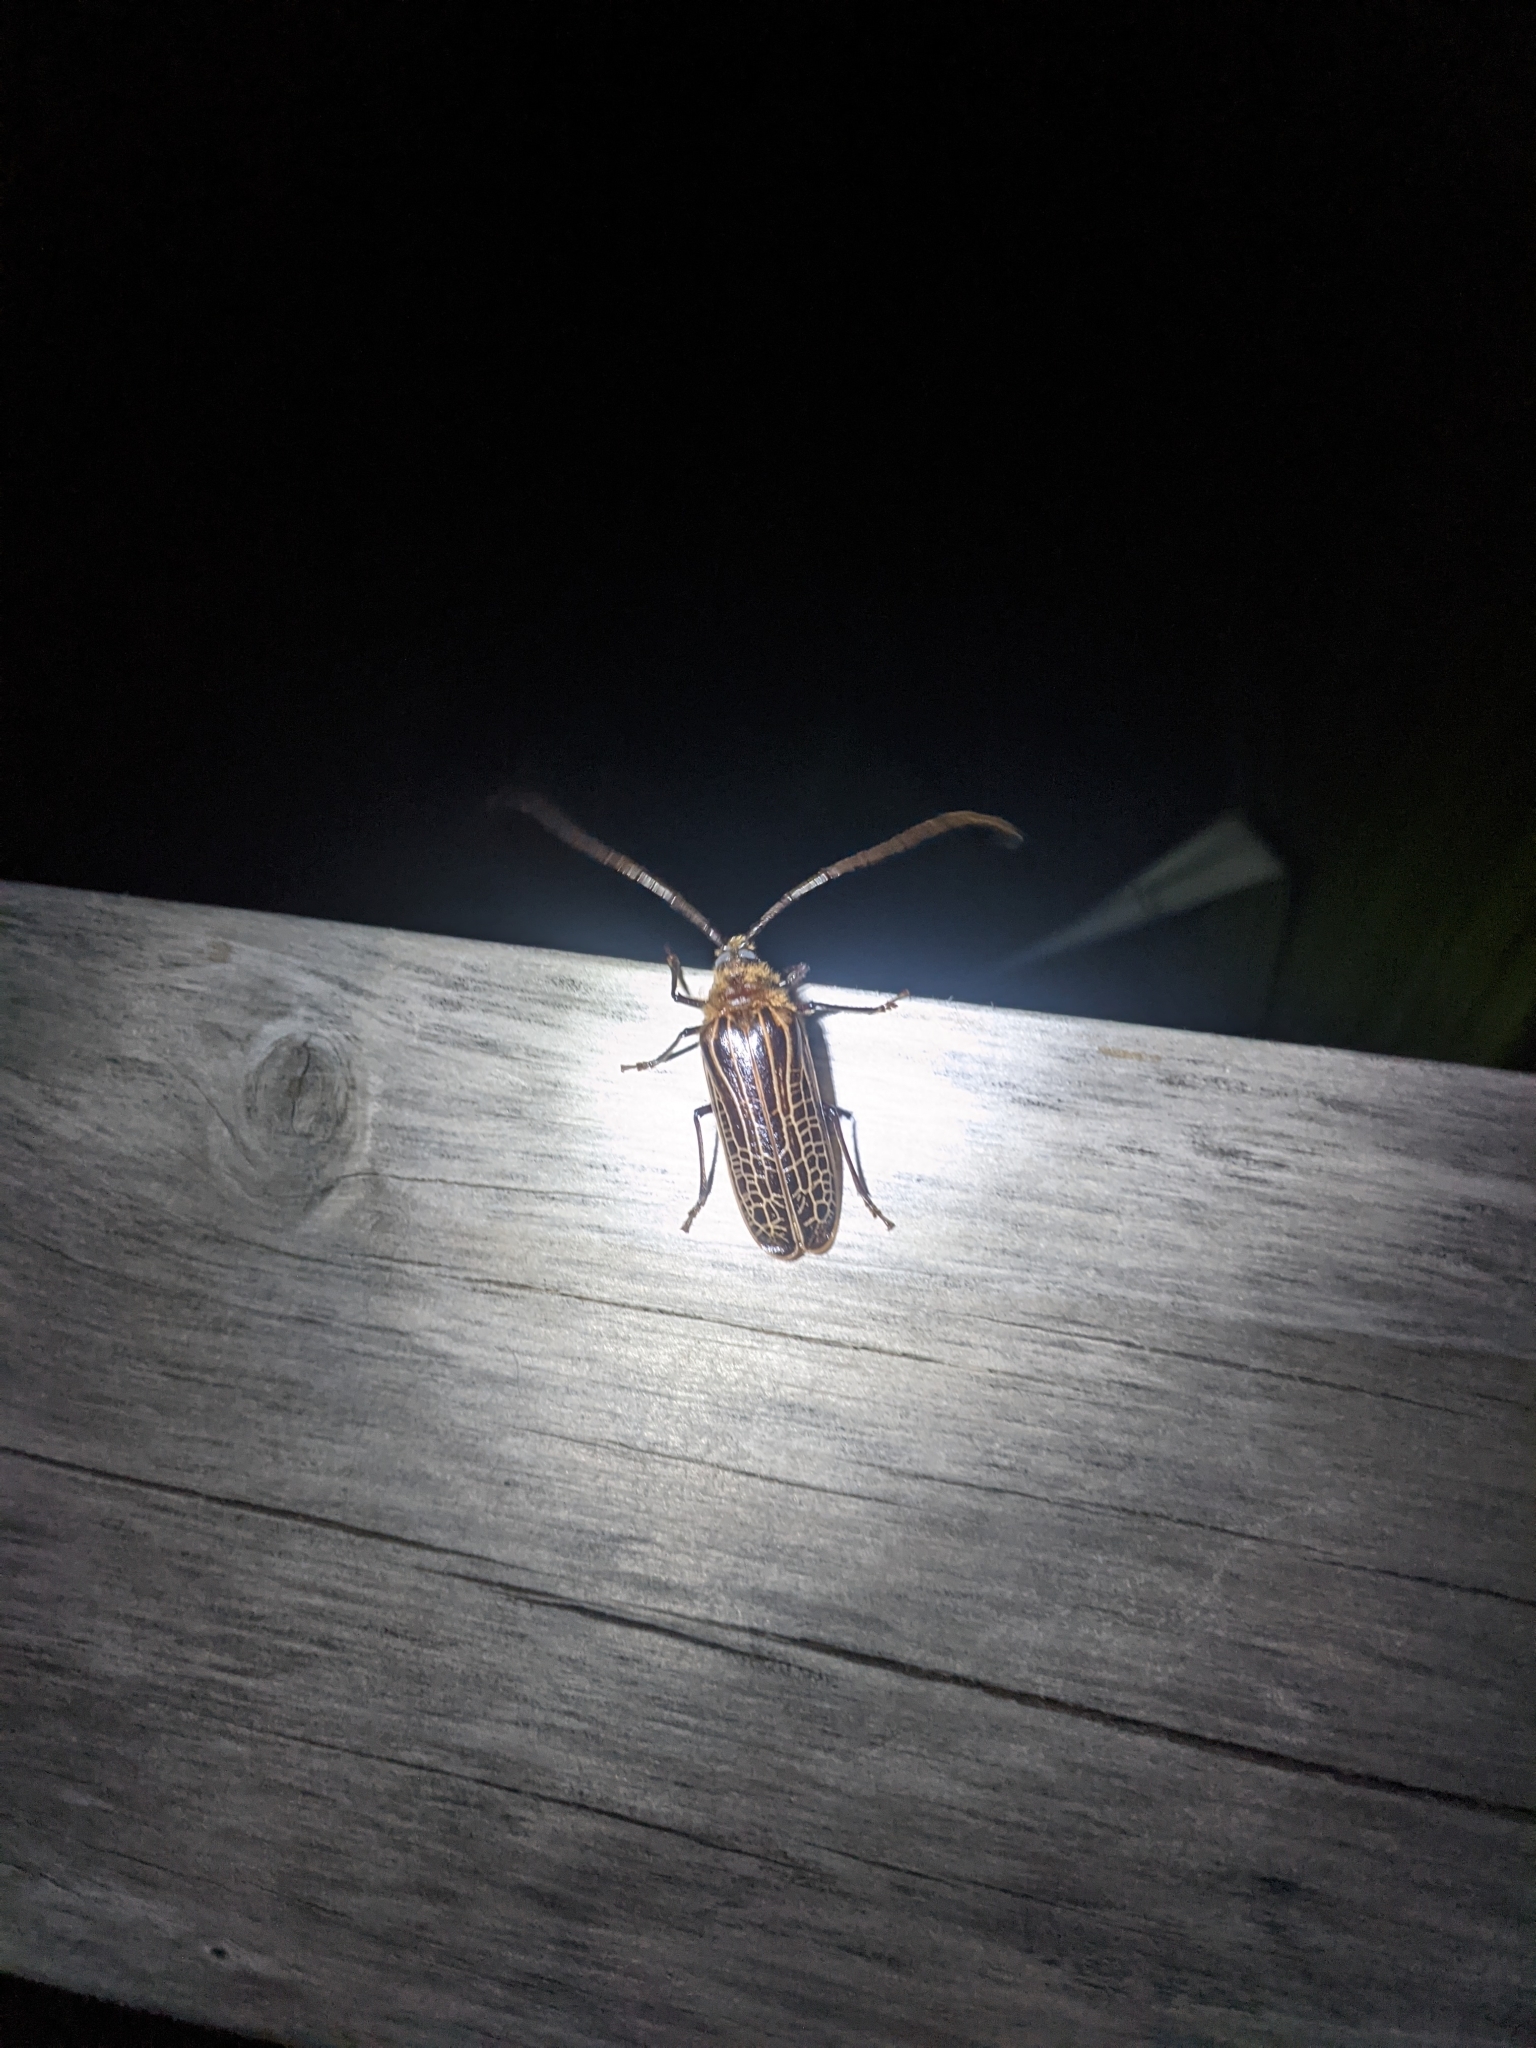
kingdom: Animalia
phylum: Arthropoda
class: Insecta
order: Coleoptera
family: Cerambycidae
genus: Prionoplus
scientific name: Prionoplus reticularis
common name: Huhu beetle
